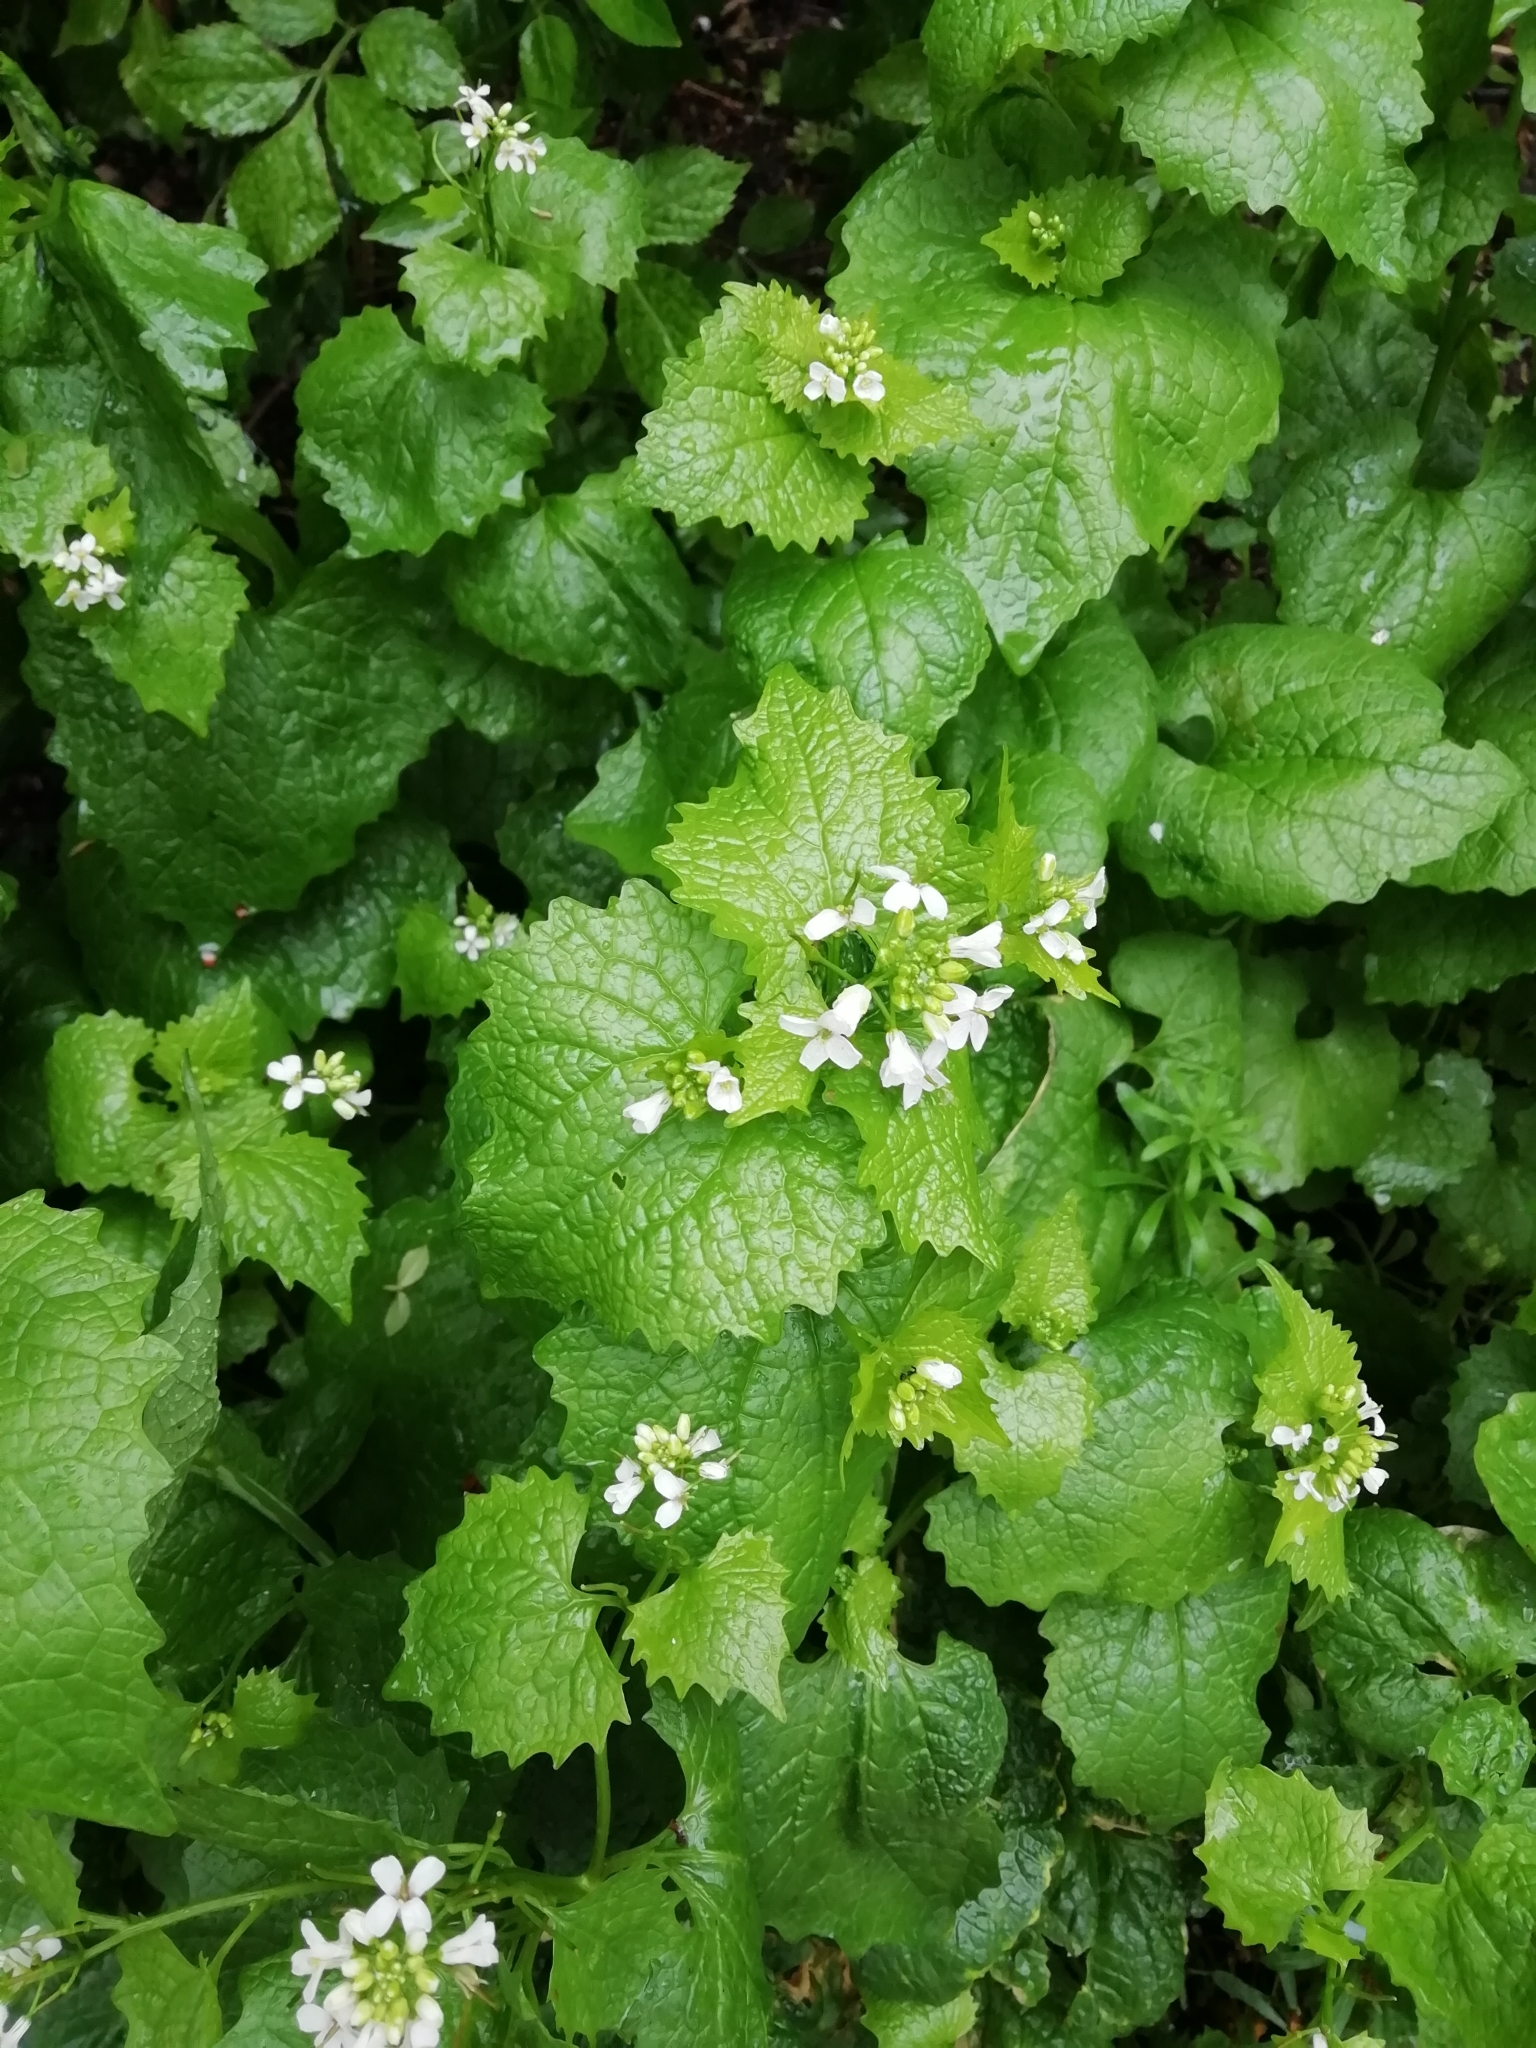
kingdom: Plantae
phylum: Tracheophyta
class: Magnoliopsida
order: Brassicales
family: Brassicaceae
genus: Alliaria
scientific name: Alliaria petiolata
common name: Garlic mustard
